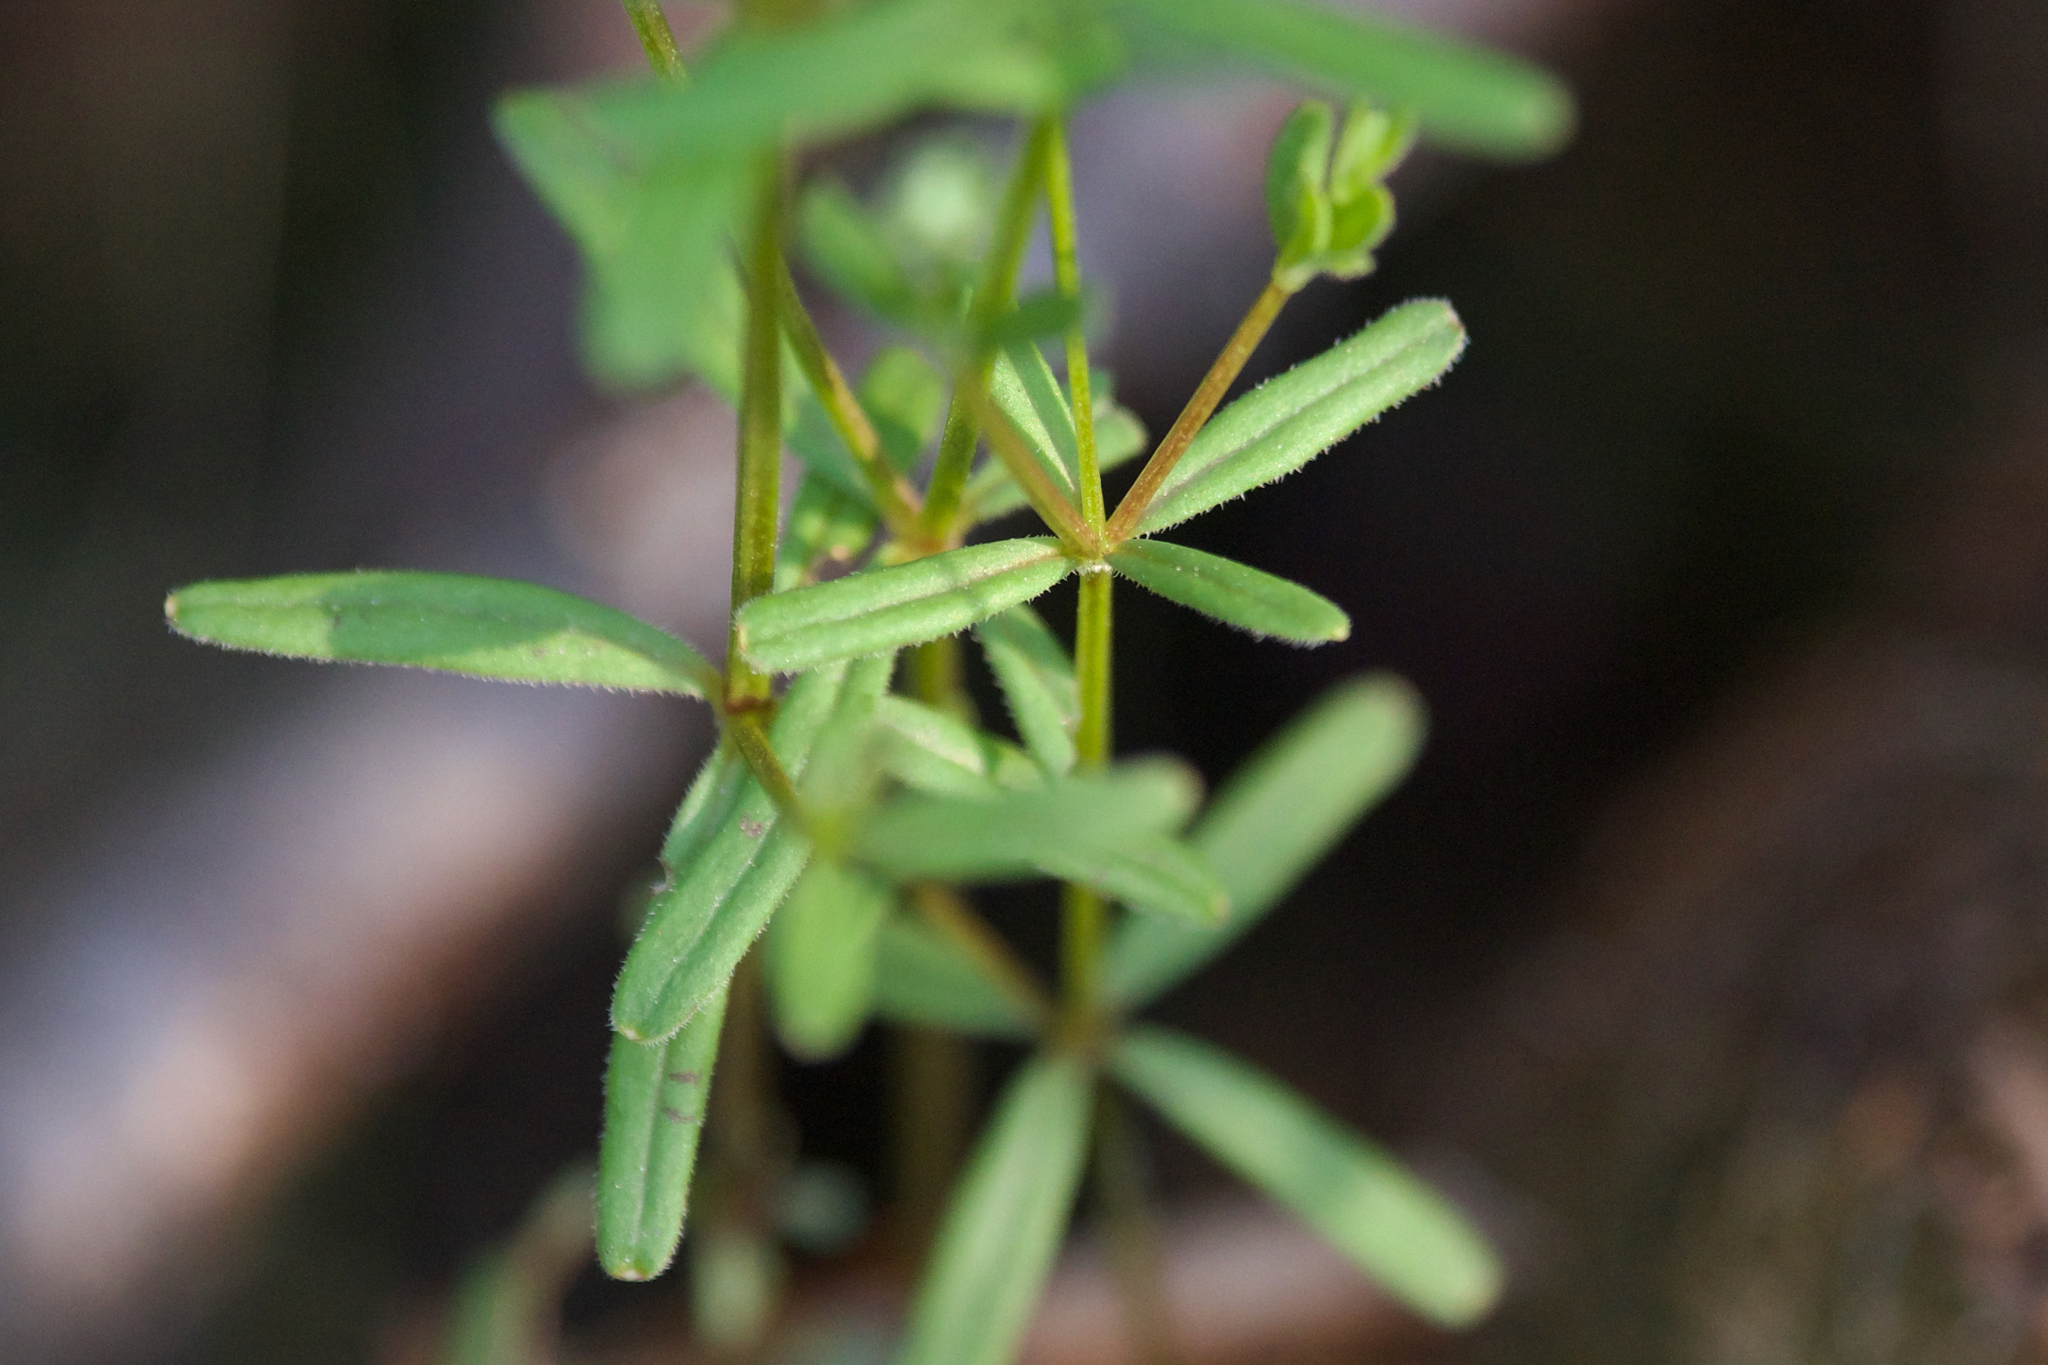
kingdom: Plantae
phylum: Tracheophyta
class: Magnoliopsida
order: Gentianales
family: Rubiaceae
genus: Galium
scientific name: Galium labradoricum
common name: Labrador bedstraw
